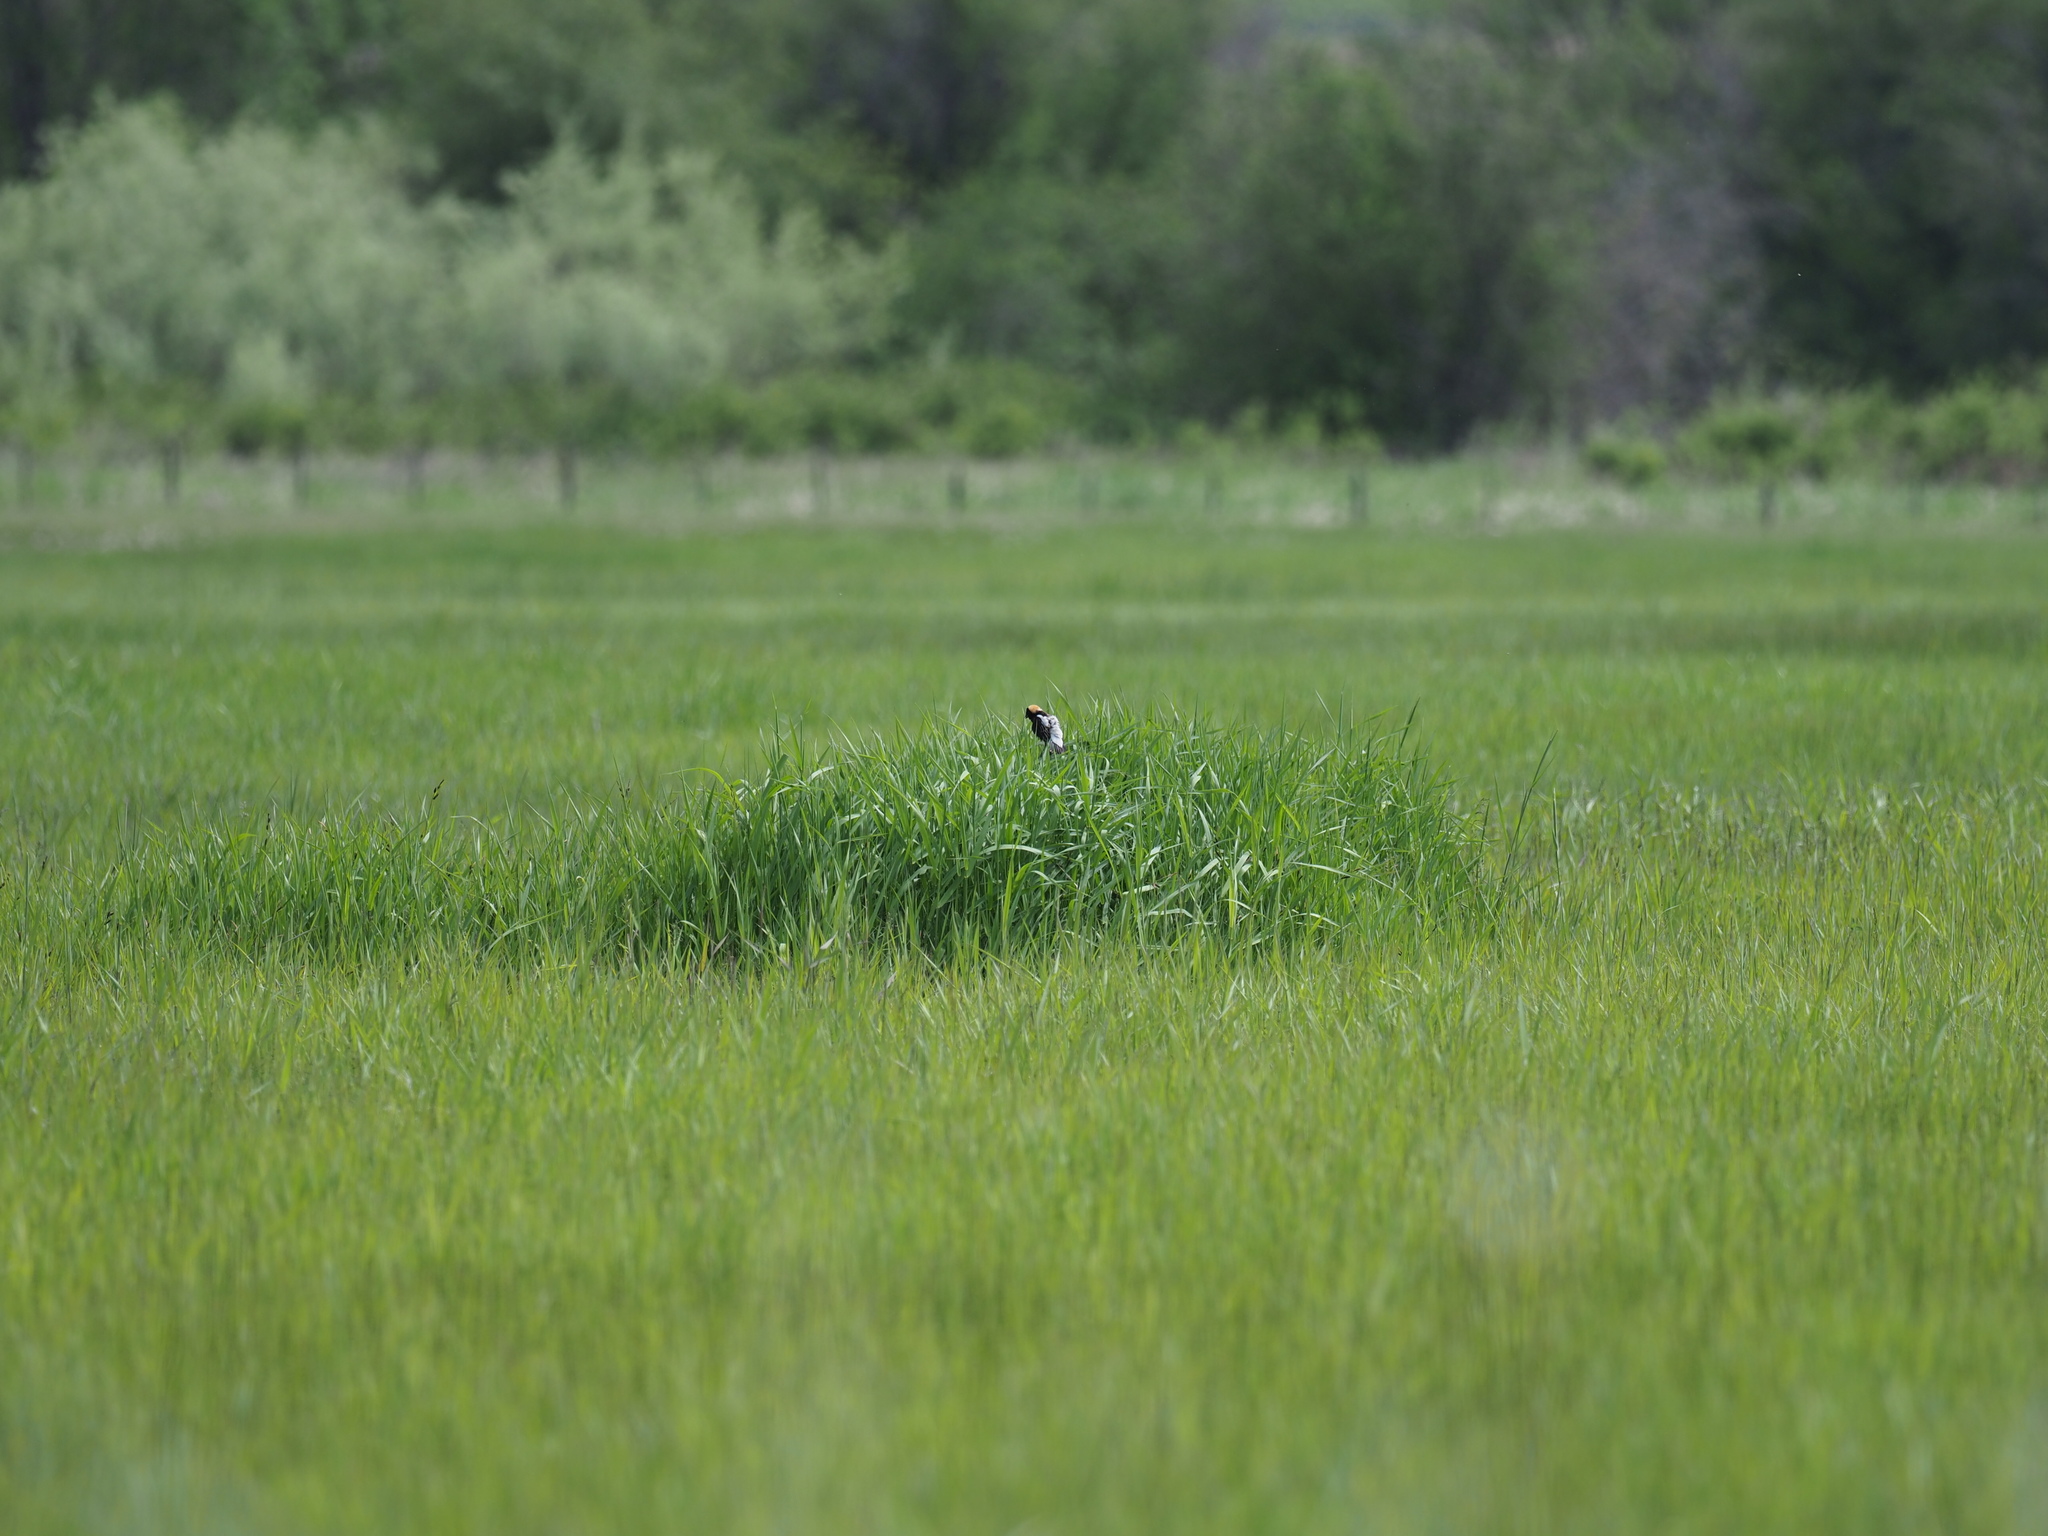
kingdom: Animalia
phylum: Chordata
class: Aves
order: Passeriformes
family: Icteridae
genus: Dolichonyx
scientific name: Dolichonyx oryzivorus
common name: Bobolink
